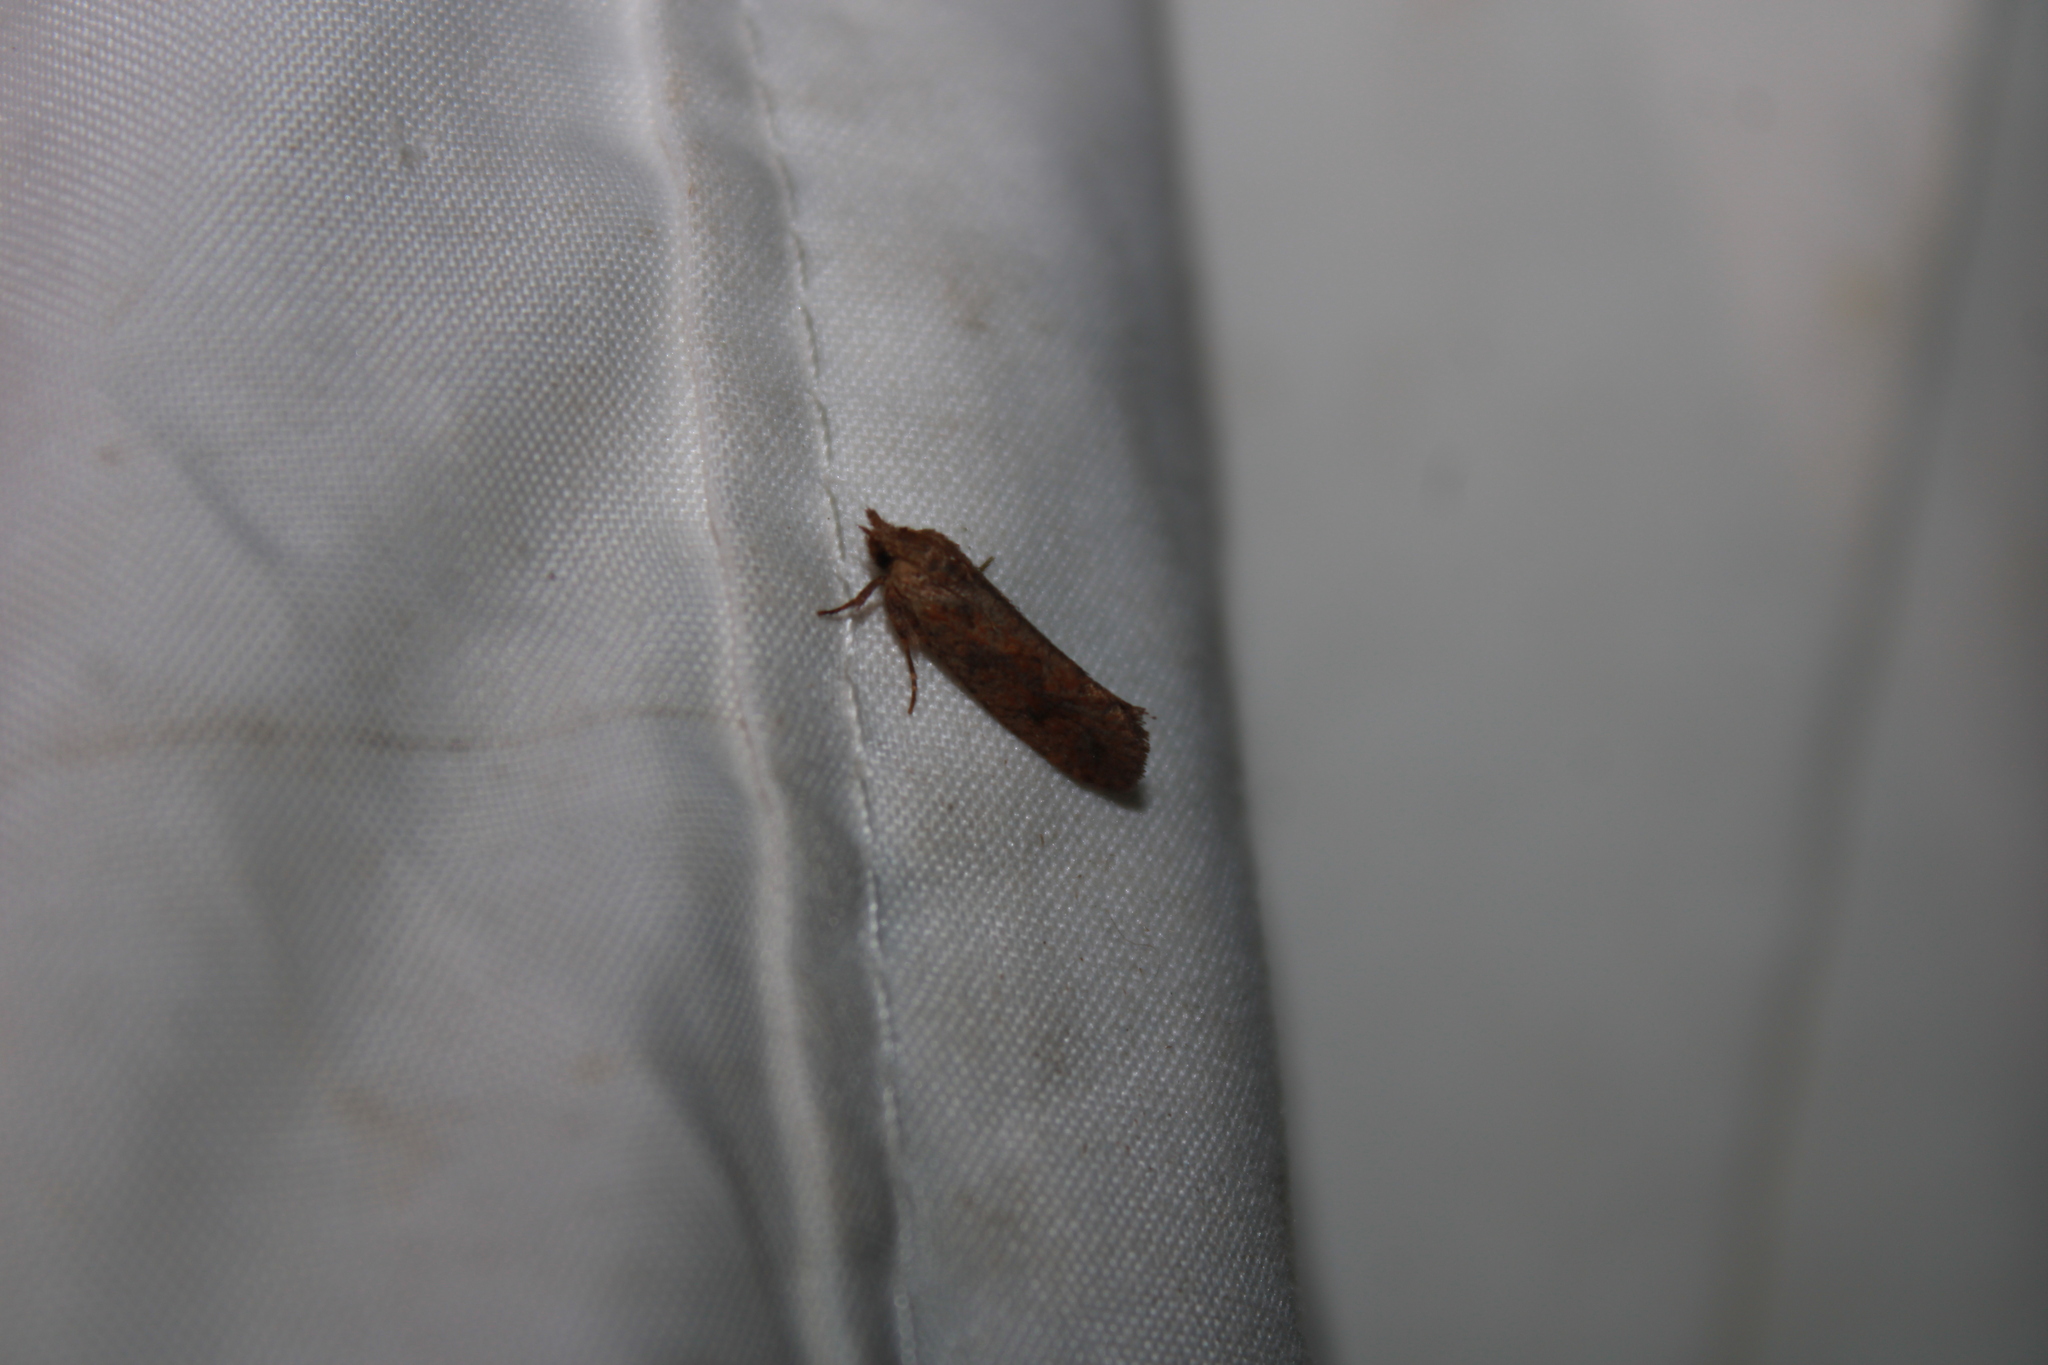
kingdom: Animalia
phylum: Arthropoda
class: Insecta
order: Lepidoptera
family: Tineidae
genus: Acrolophus
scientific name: Acrolophus walsinghami
